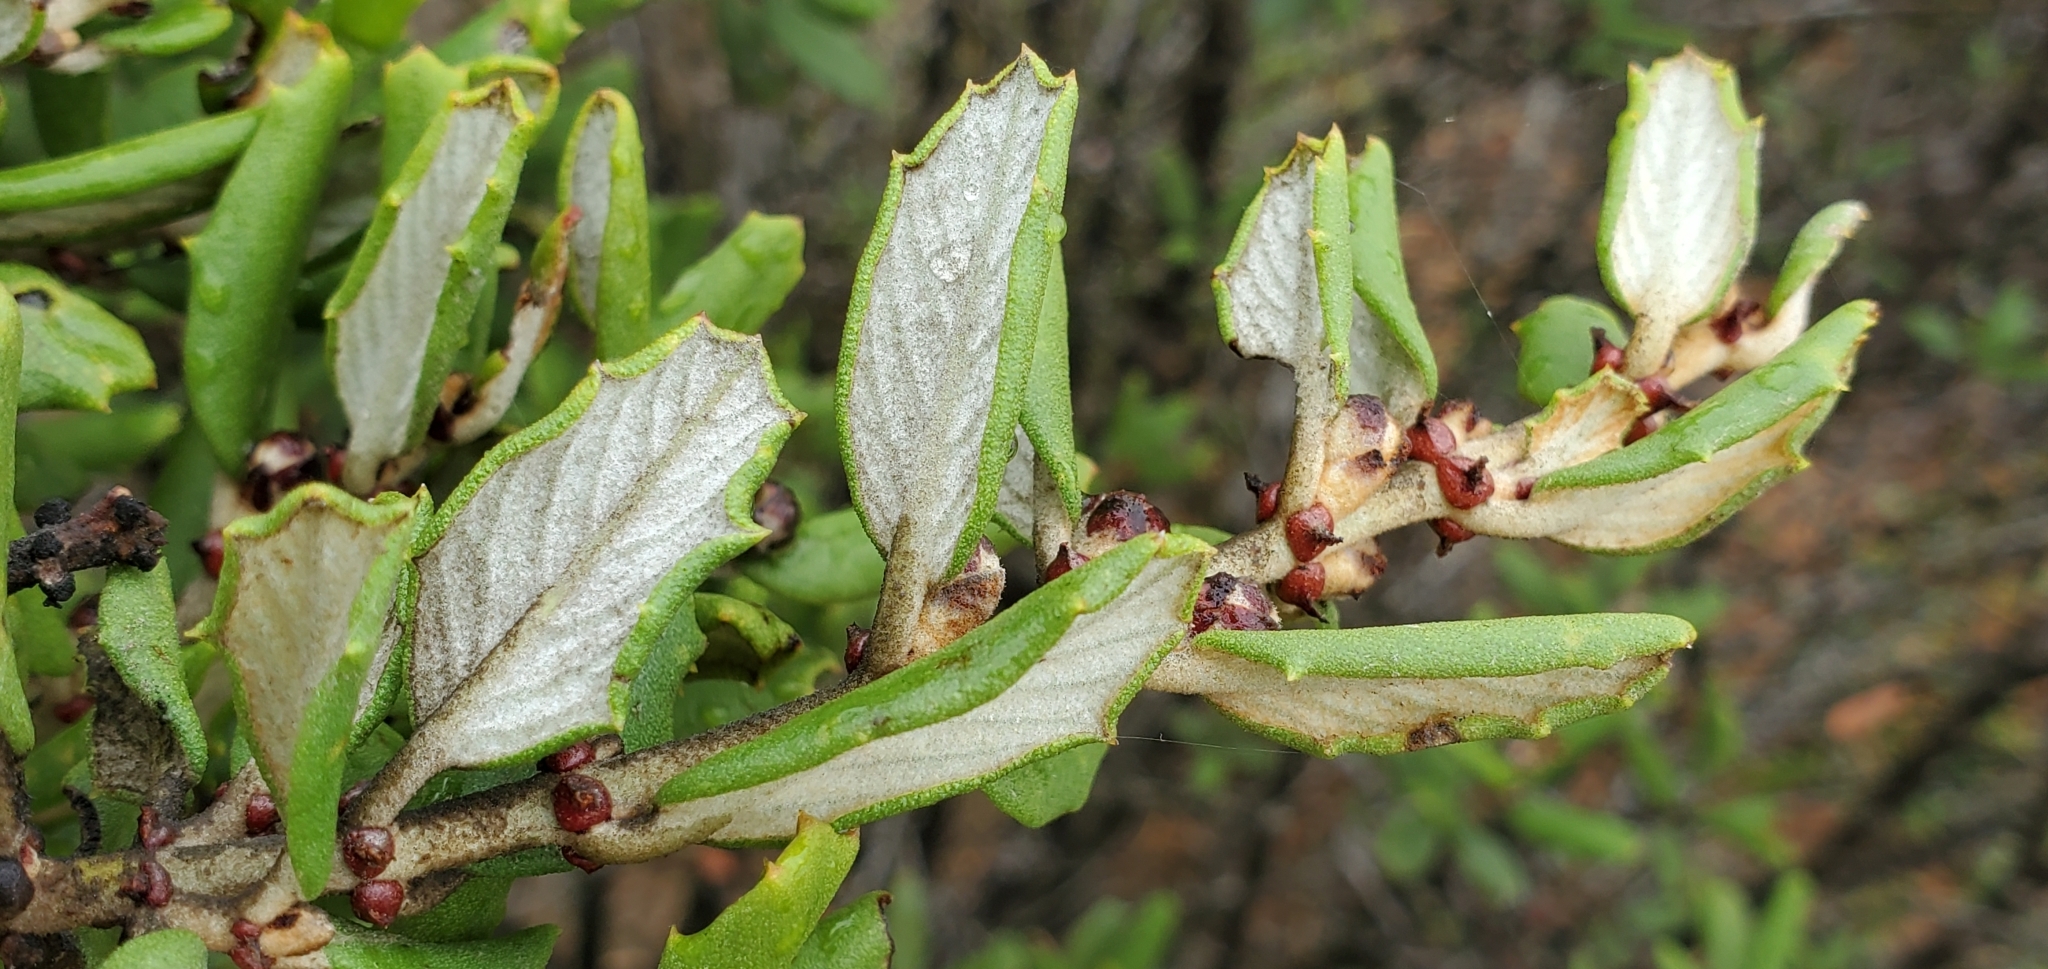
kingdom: Plantae
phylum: Tracheophyta
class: Magnoliopsida
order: Rosales
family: Rhamnaceae
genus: Ceanothus
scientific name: Ceanothus crassifolius
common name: Hoaryleaf ceanothus
